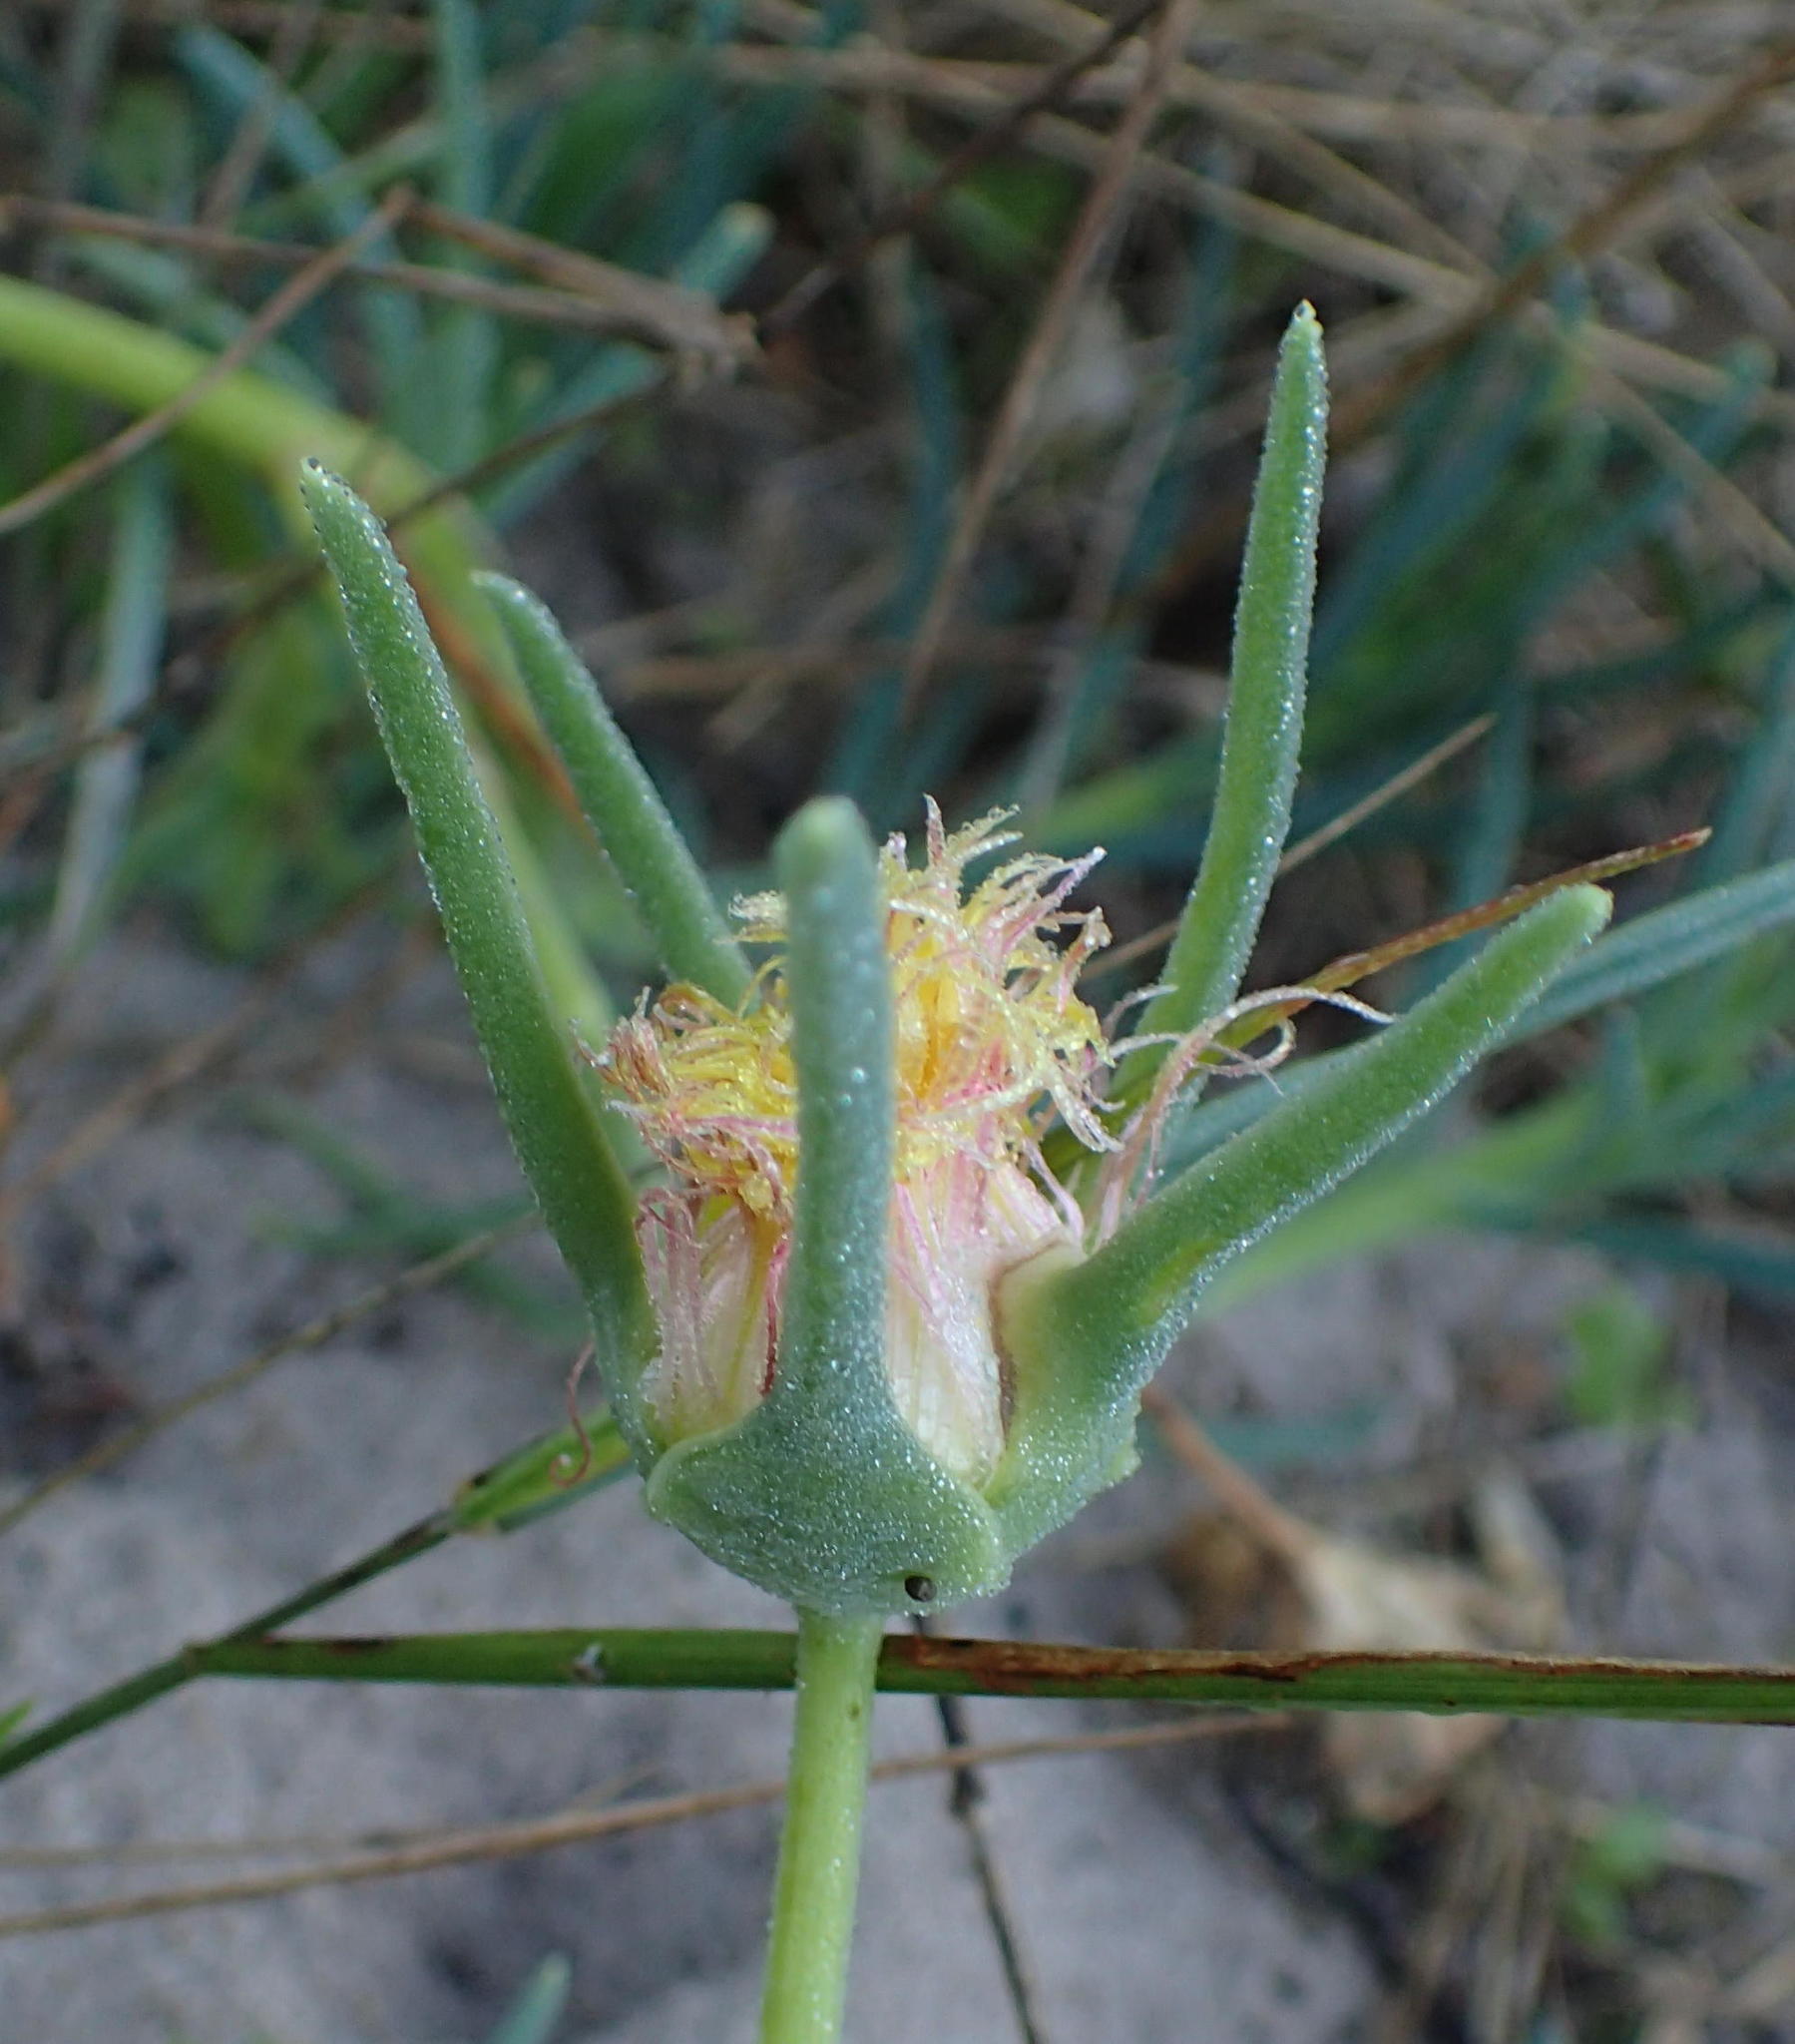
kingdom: Plantae
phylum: Tracheophyta
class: Magnoliopsida
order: Caryophyllales
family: Aizoaceae
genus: Conicosia
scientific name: Conicosia pugioniformis
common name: Narrow-leaved iceplant
